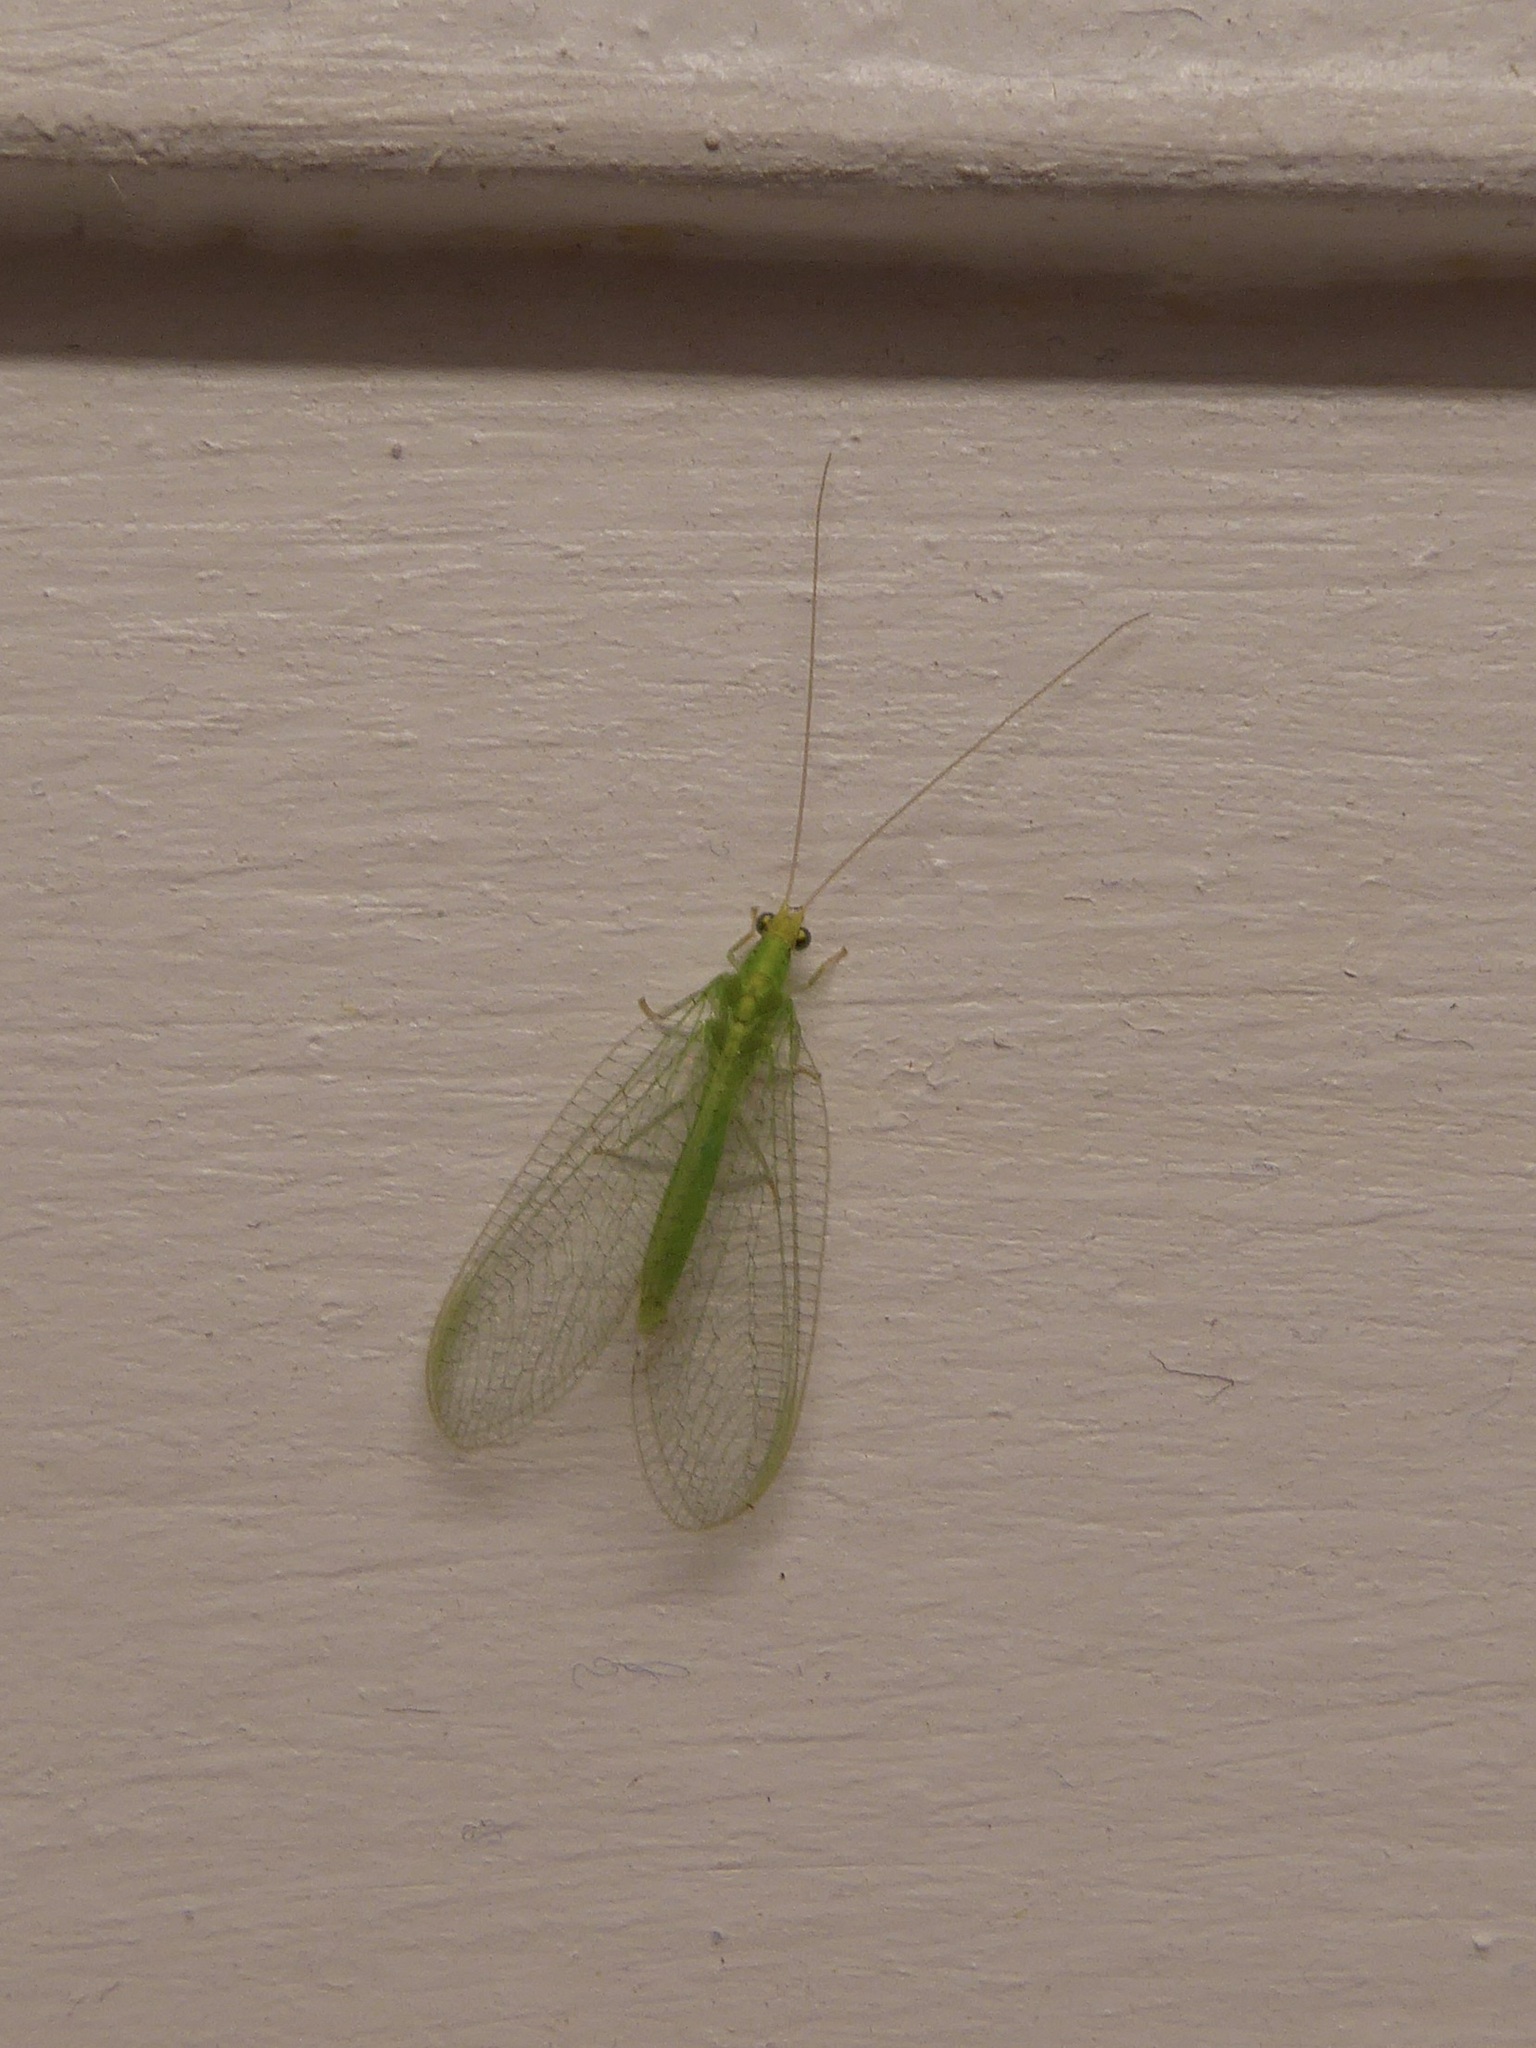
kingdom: Animalia
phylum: Arthropoda
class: Insecta
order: Neuroptera
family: Chrysopidae
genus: Pseudomallada
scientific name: Pseudomallada flavifrons
